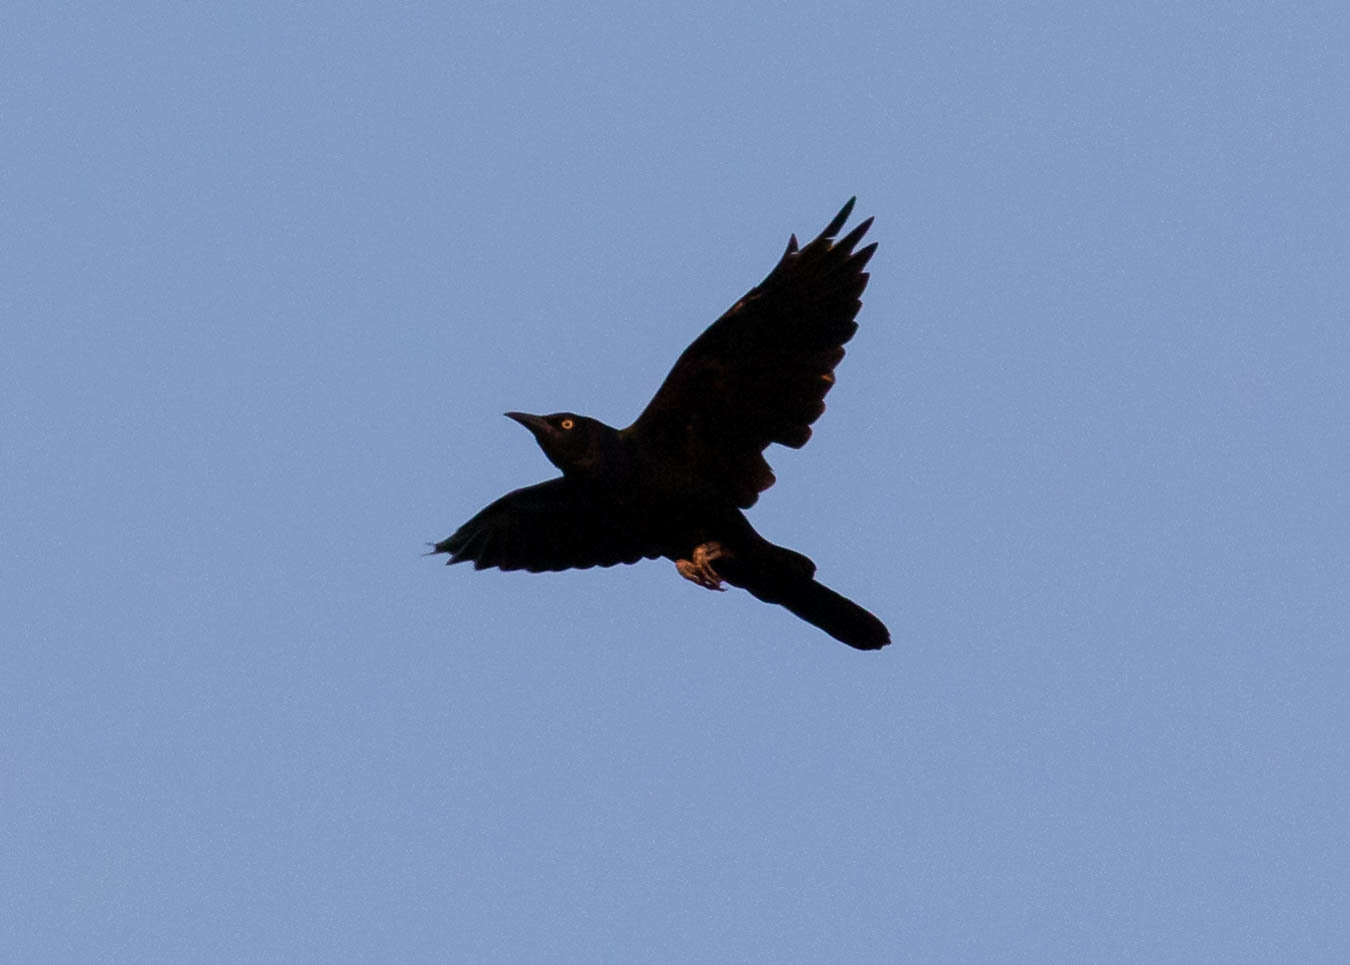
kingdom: Animalia
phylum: Chordata
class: Aves
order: Passeriformes
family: Icteridae
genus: Quiscalus
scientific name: Quiscalus quiscula
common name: Common grackle
